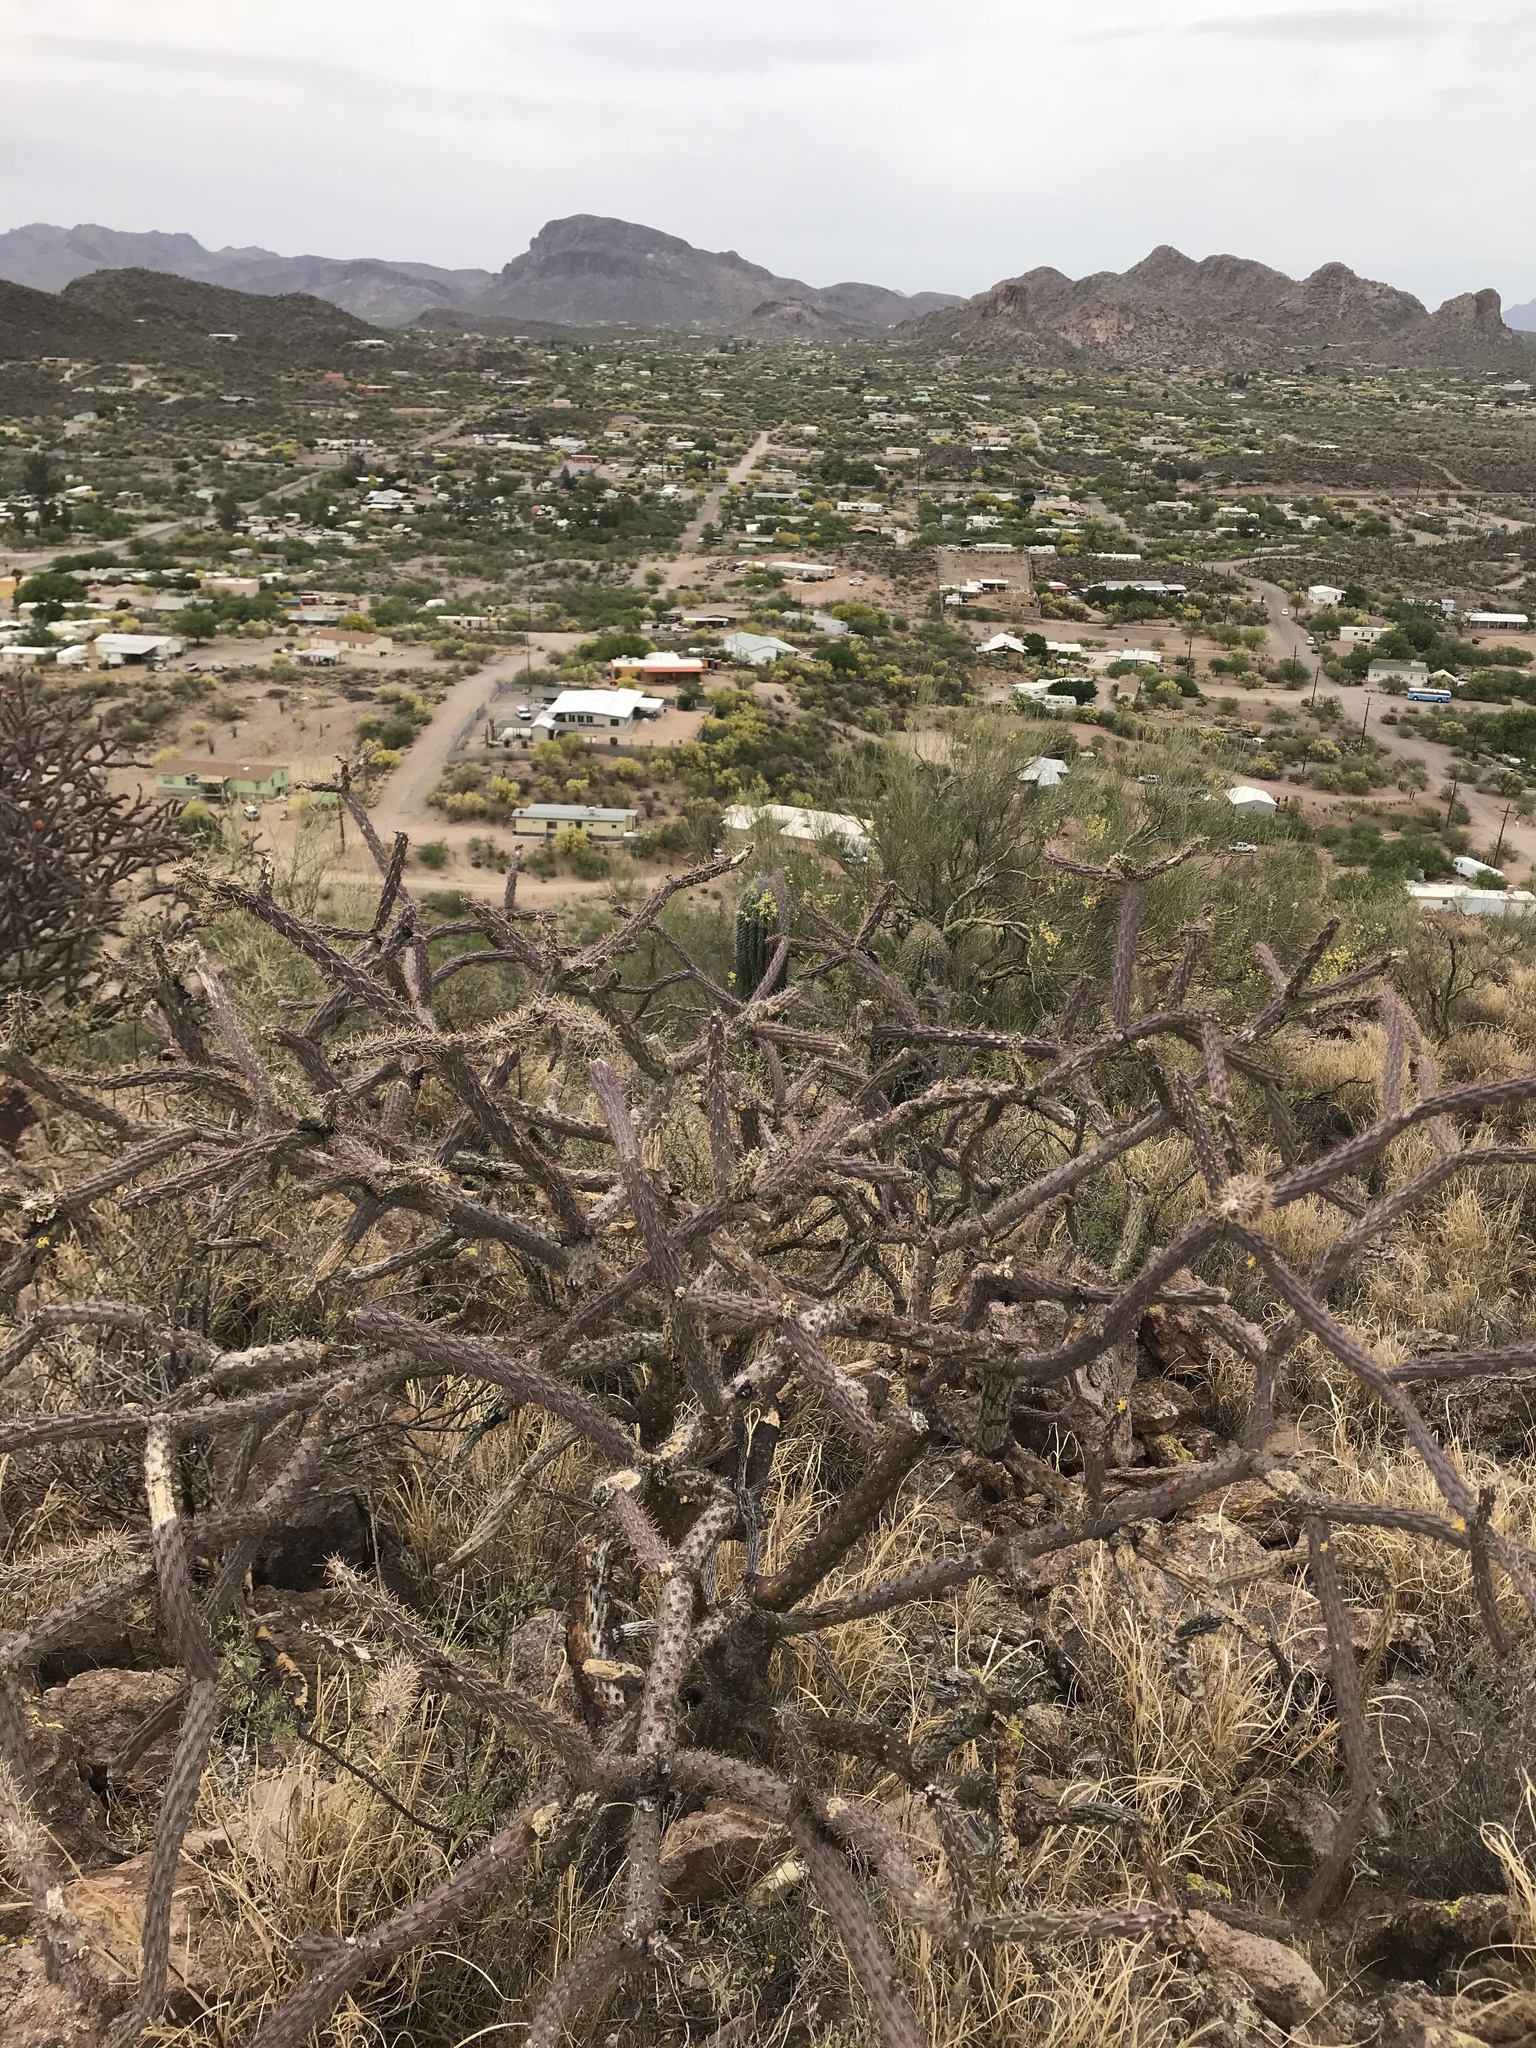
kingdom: Plantae
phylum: Tracheophyta
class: Magnoliopsida
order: Caryophyllales
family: Cactaceae
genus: Cylindropuntia
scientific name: Cylindropuntia thurberi
